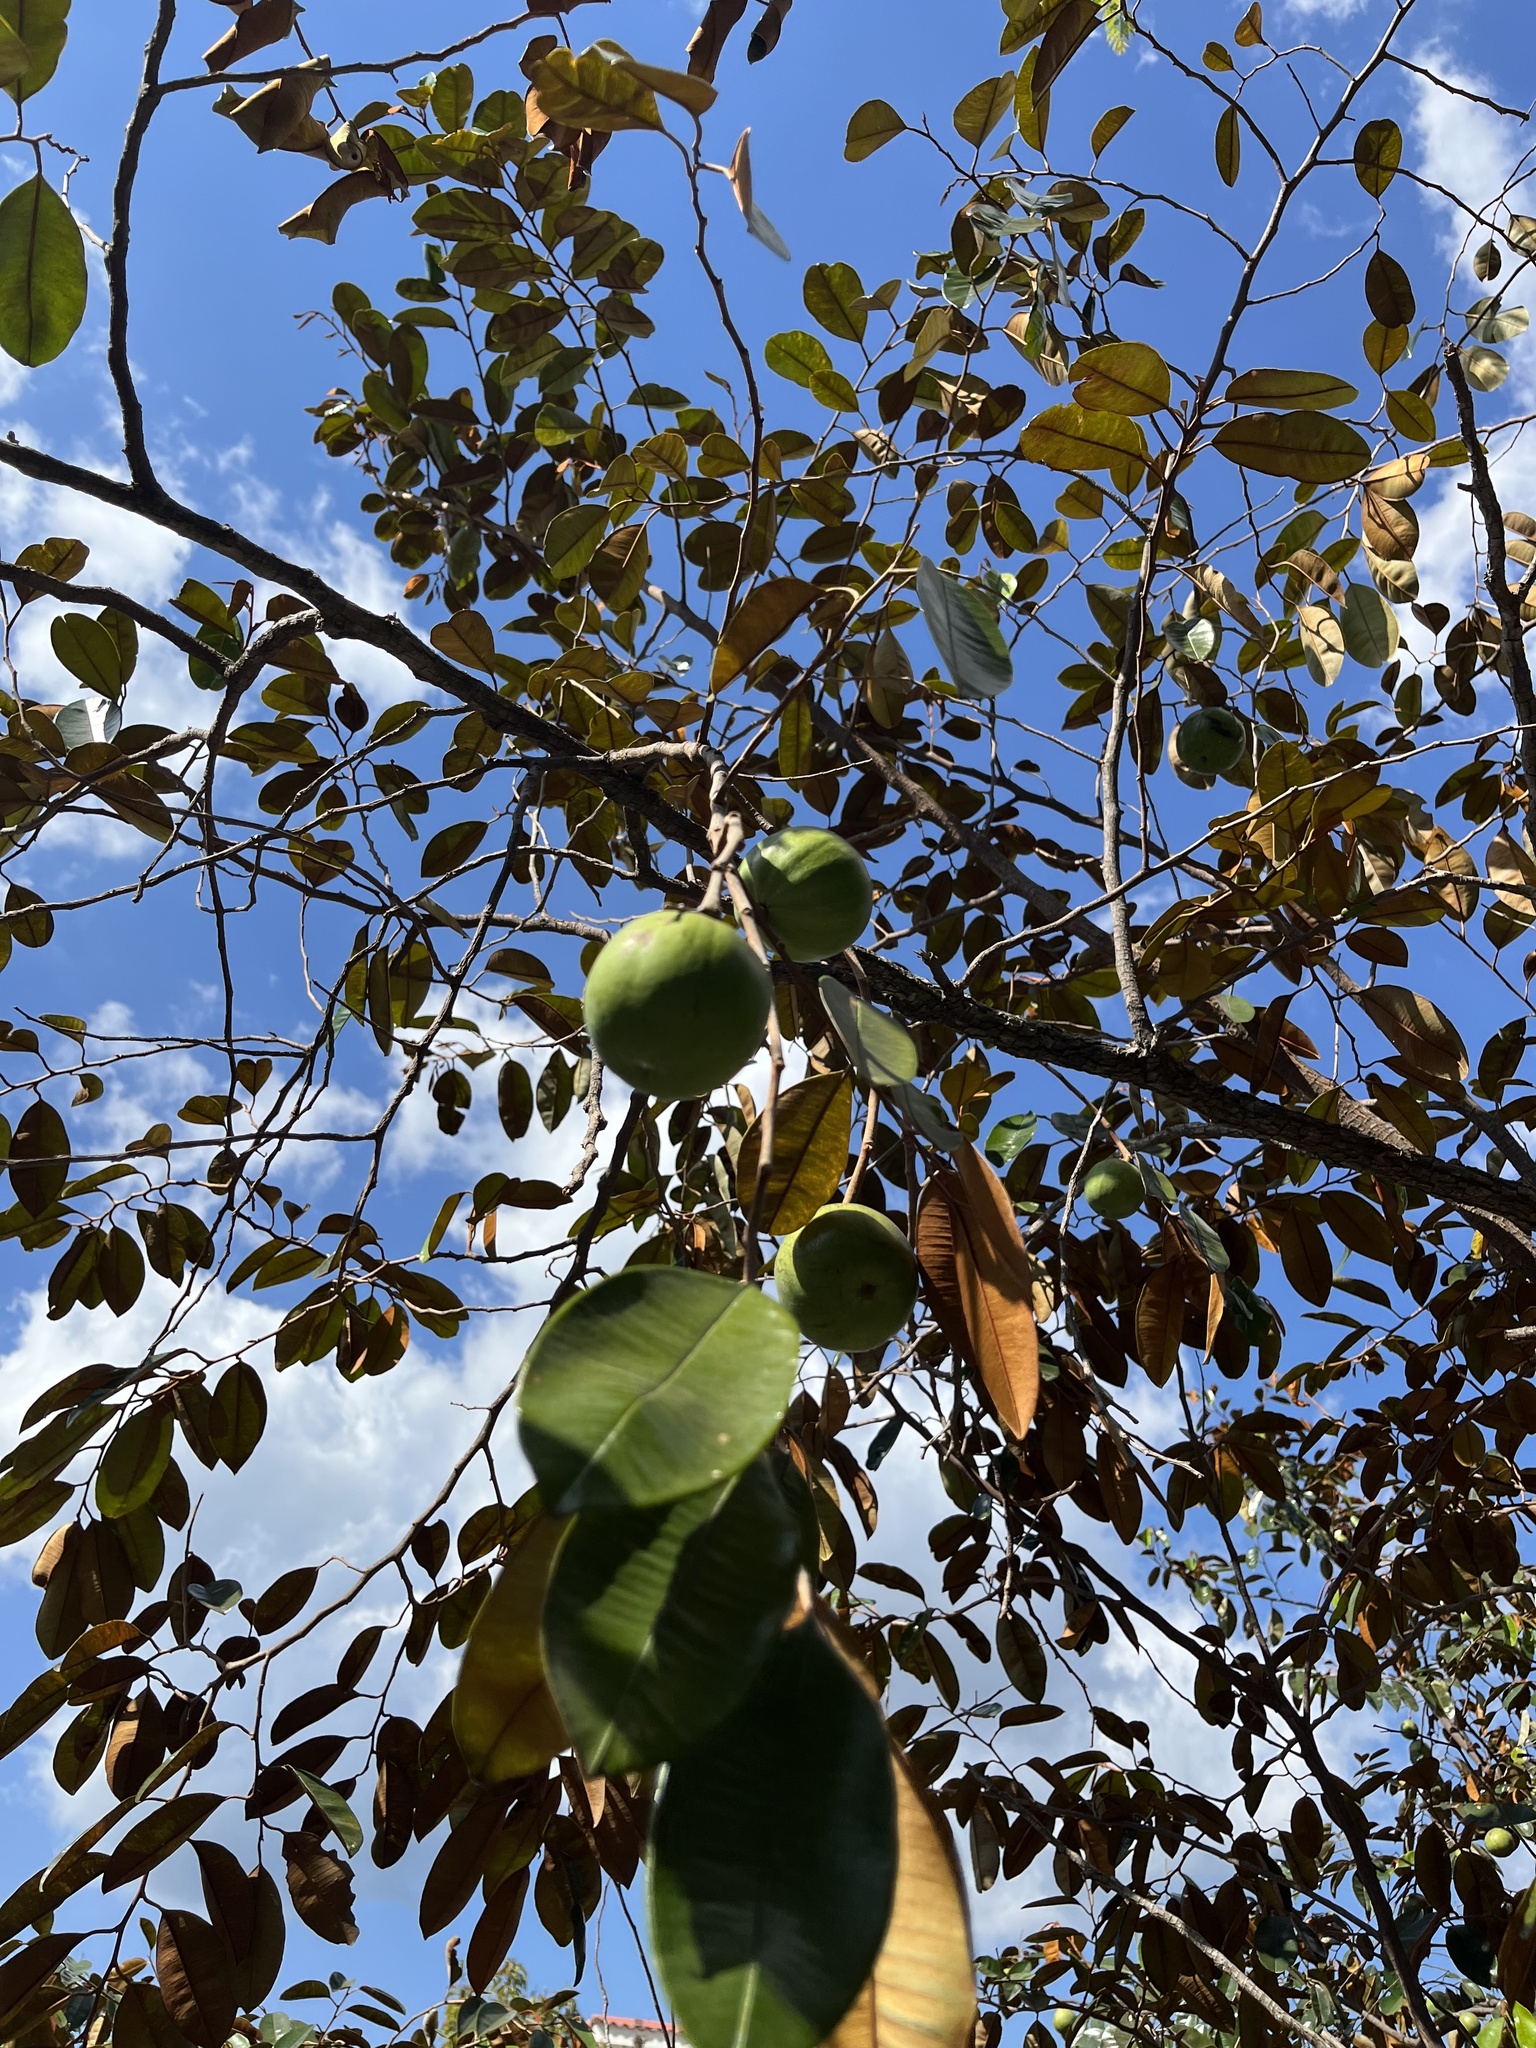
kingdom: Plantae
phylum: Tracheophyta
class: Magnoliopsida
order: Ericales
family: Sapotaceae
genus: Chrysophyllum
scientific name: Chrysophyllum cainito
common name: Star-apple
